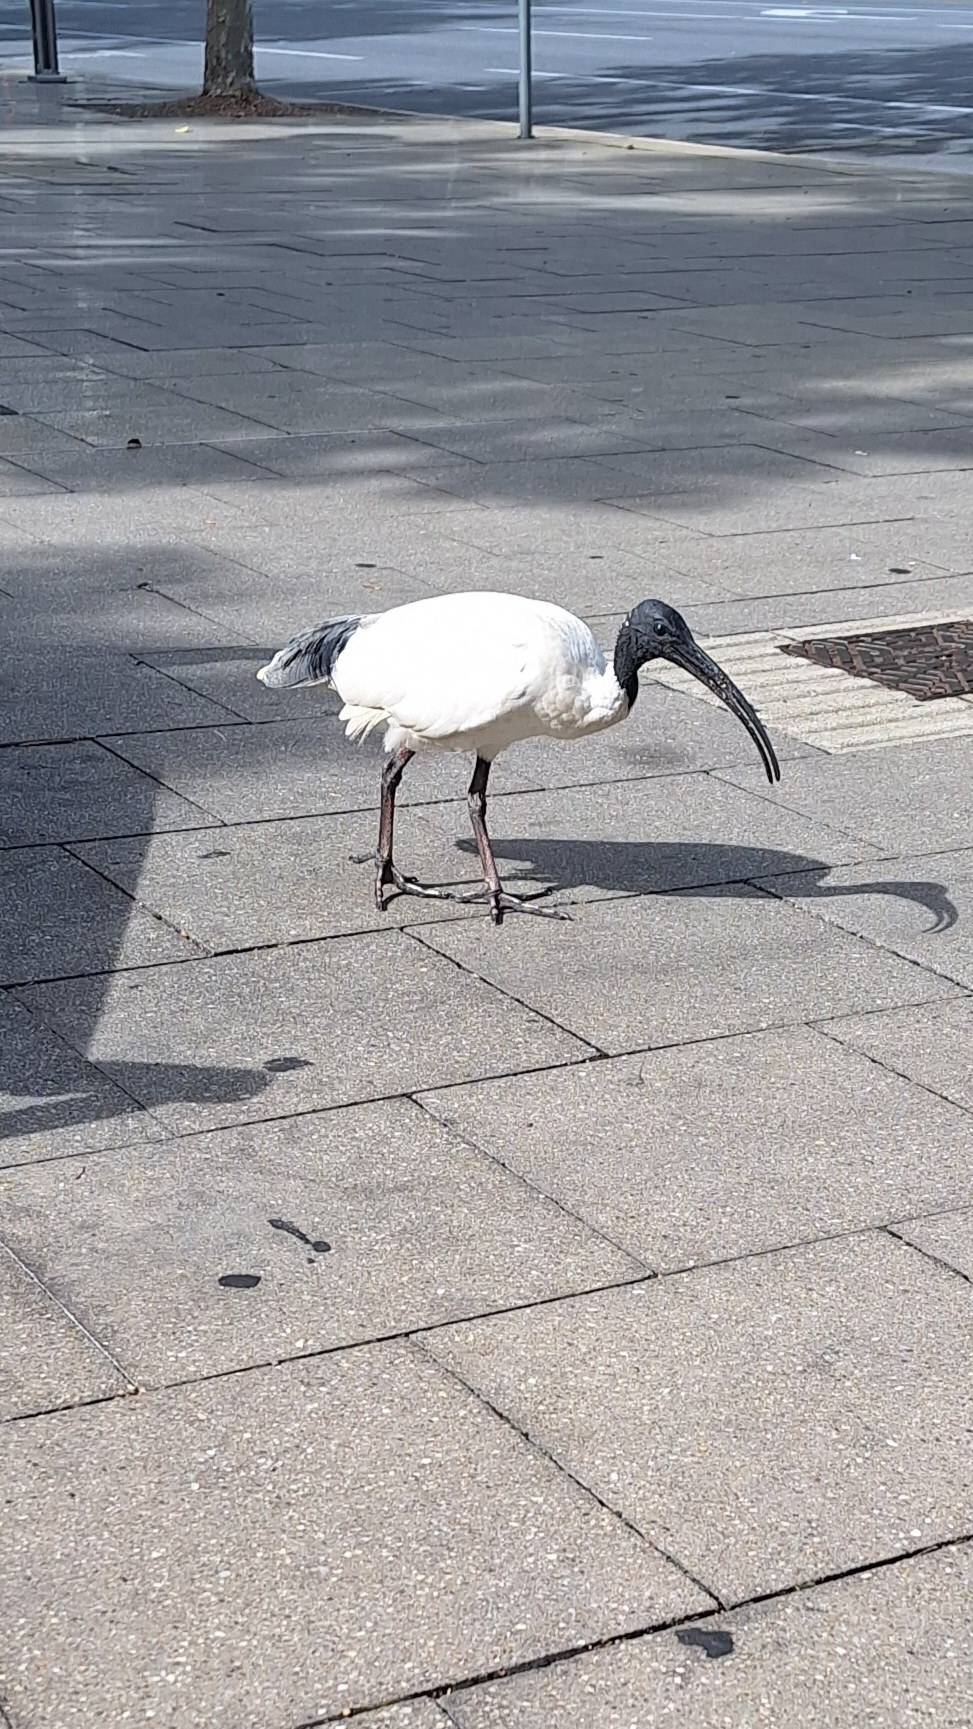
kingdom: Animalia
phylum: Chordata
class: Aves
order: Pelecaniformes
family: Threskiornithidae
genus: Threskiornis
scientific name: Threskiornis molucca
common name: Australian white ibis
